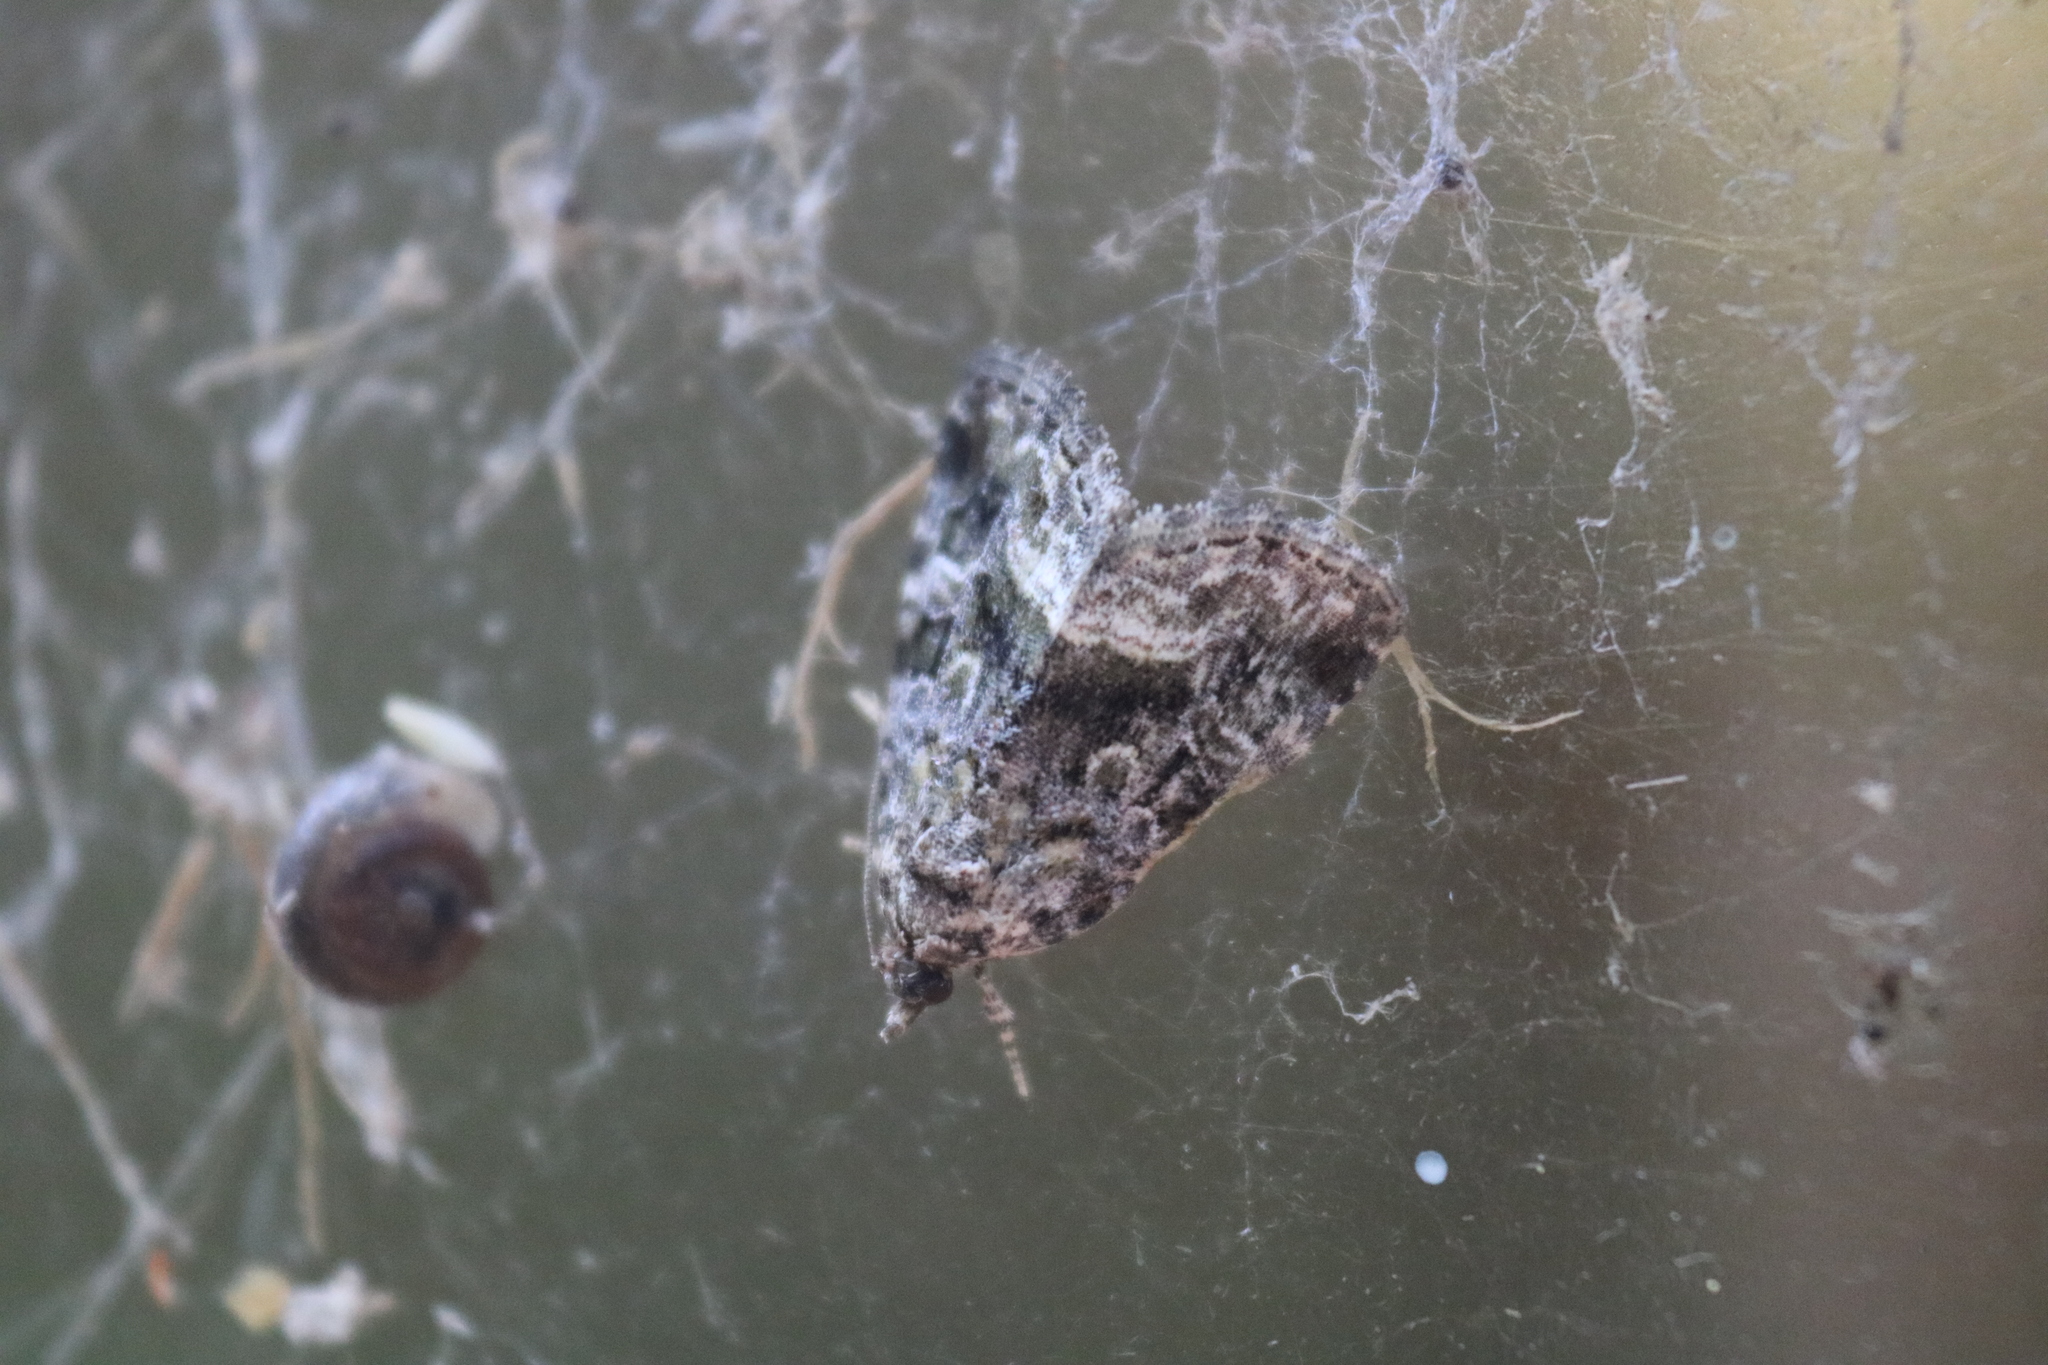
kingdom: Animalia
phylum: Arthropoda
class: Insecta
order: Lepidoptera
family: Noctuidae
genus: Protodeltote
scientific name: Protodeltote muscosula
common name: Large mossy glyph
